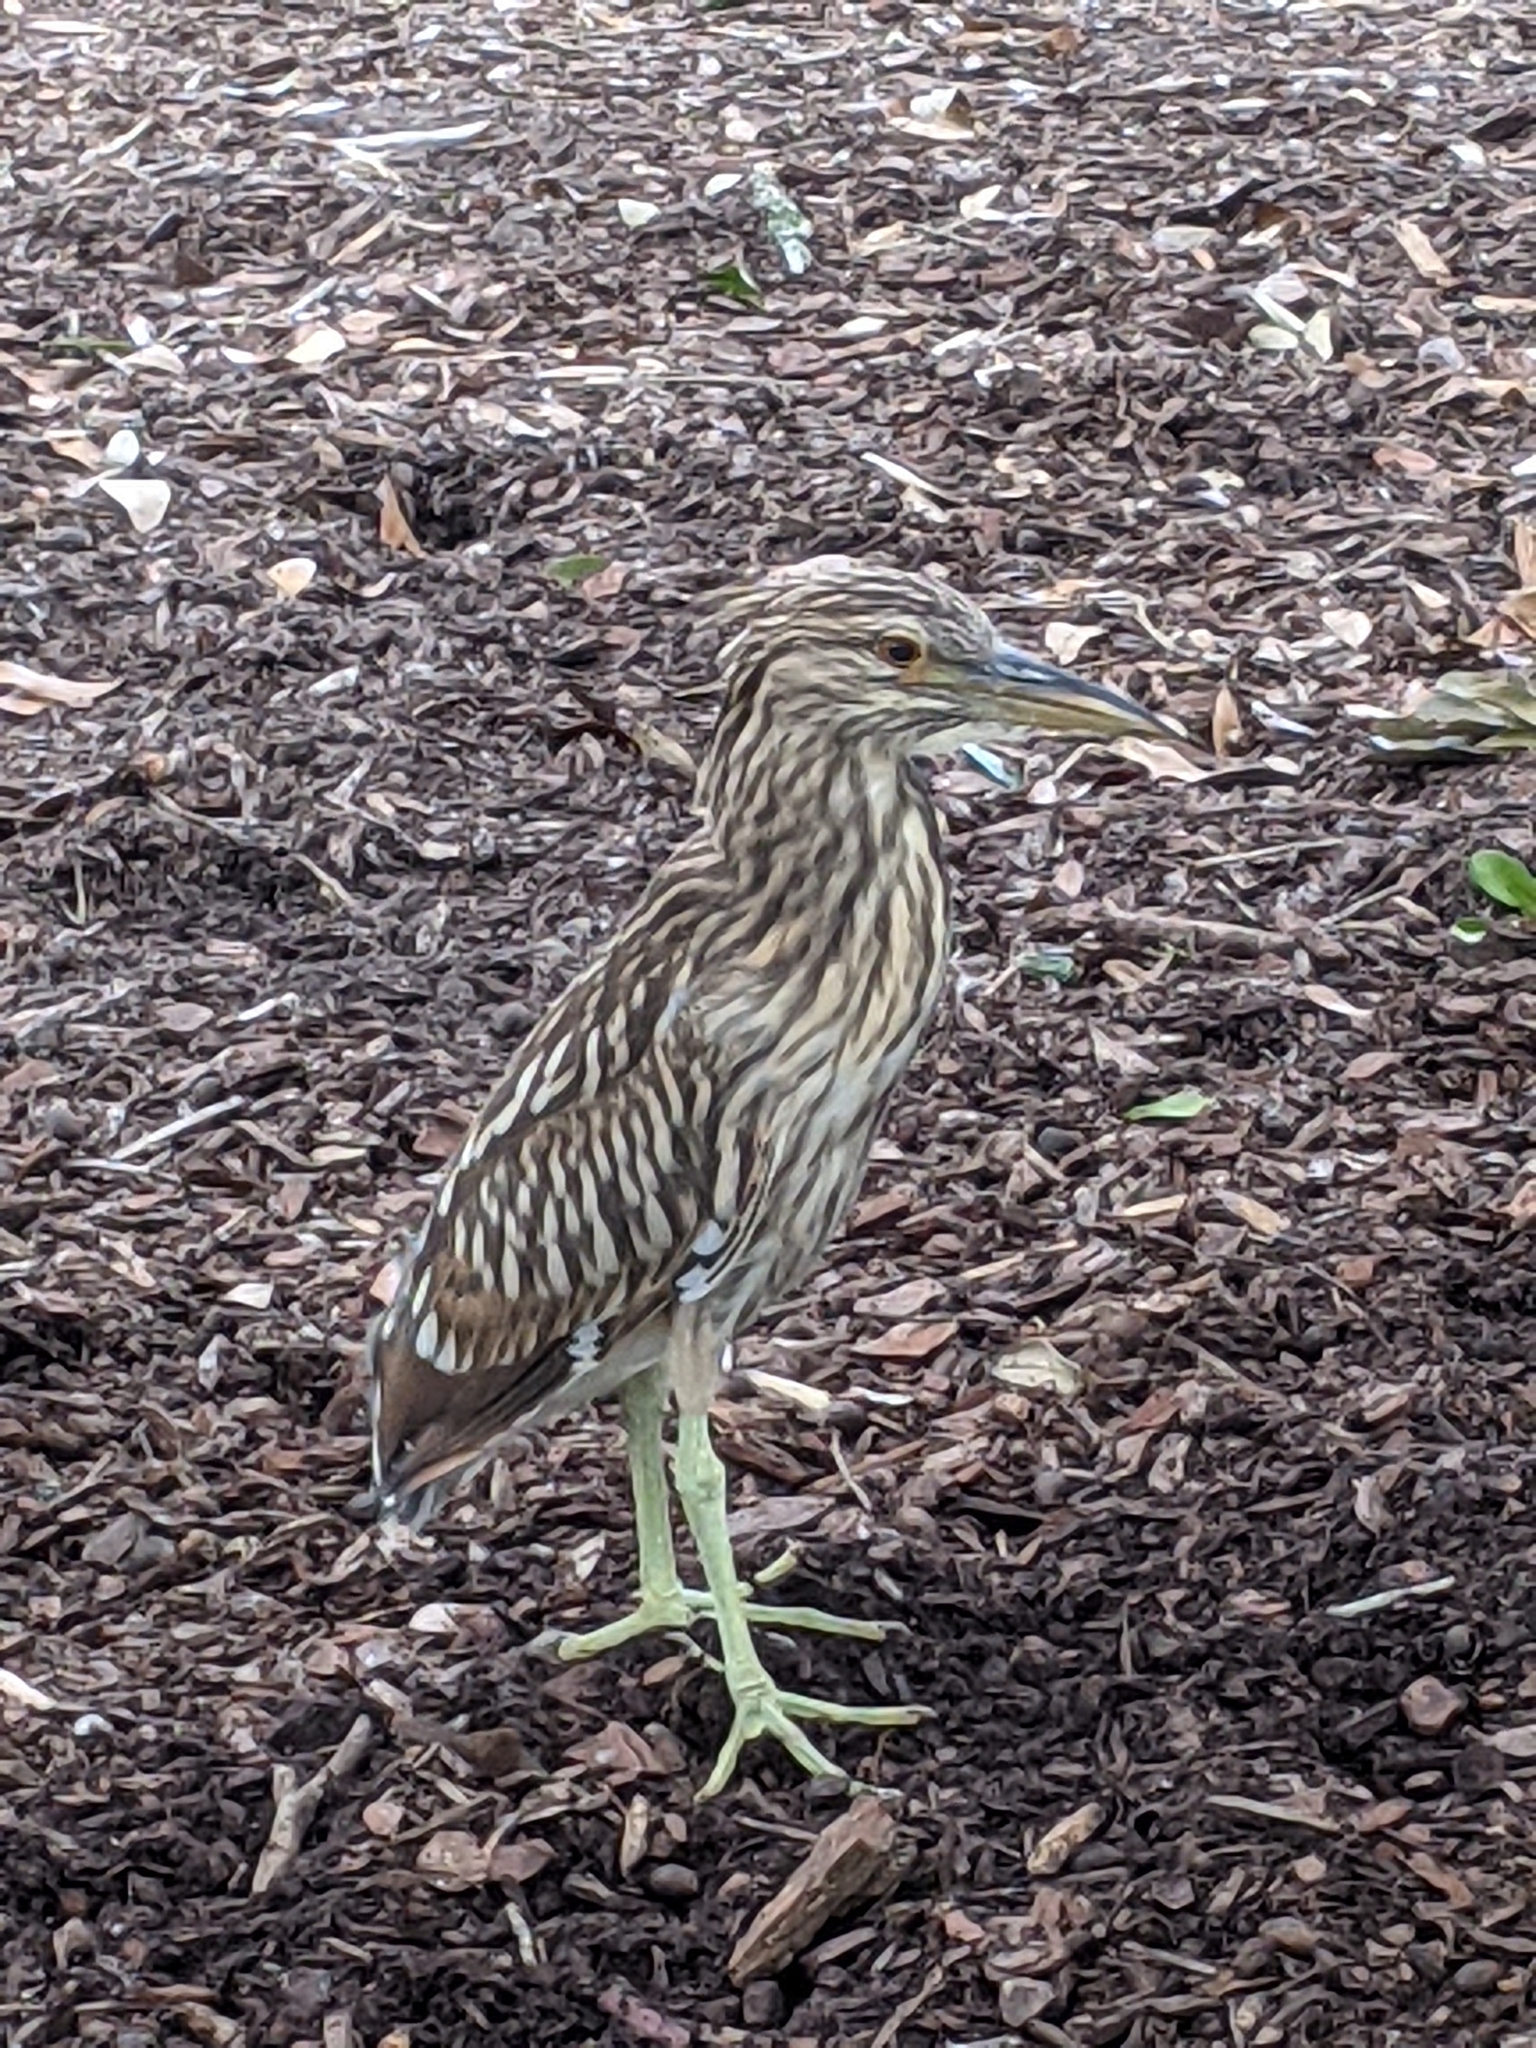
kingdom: Animalia
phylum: Chordata
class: Aves
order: Pelecaniformes
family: Ardeidae
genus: Nycticorax
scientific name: Nycticorax nycticorax
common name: Black-crowned night heron
